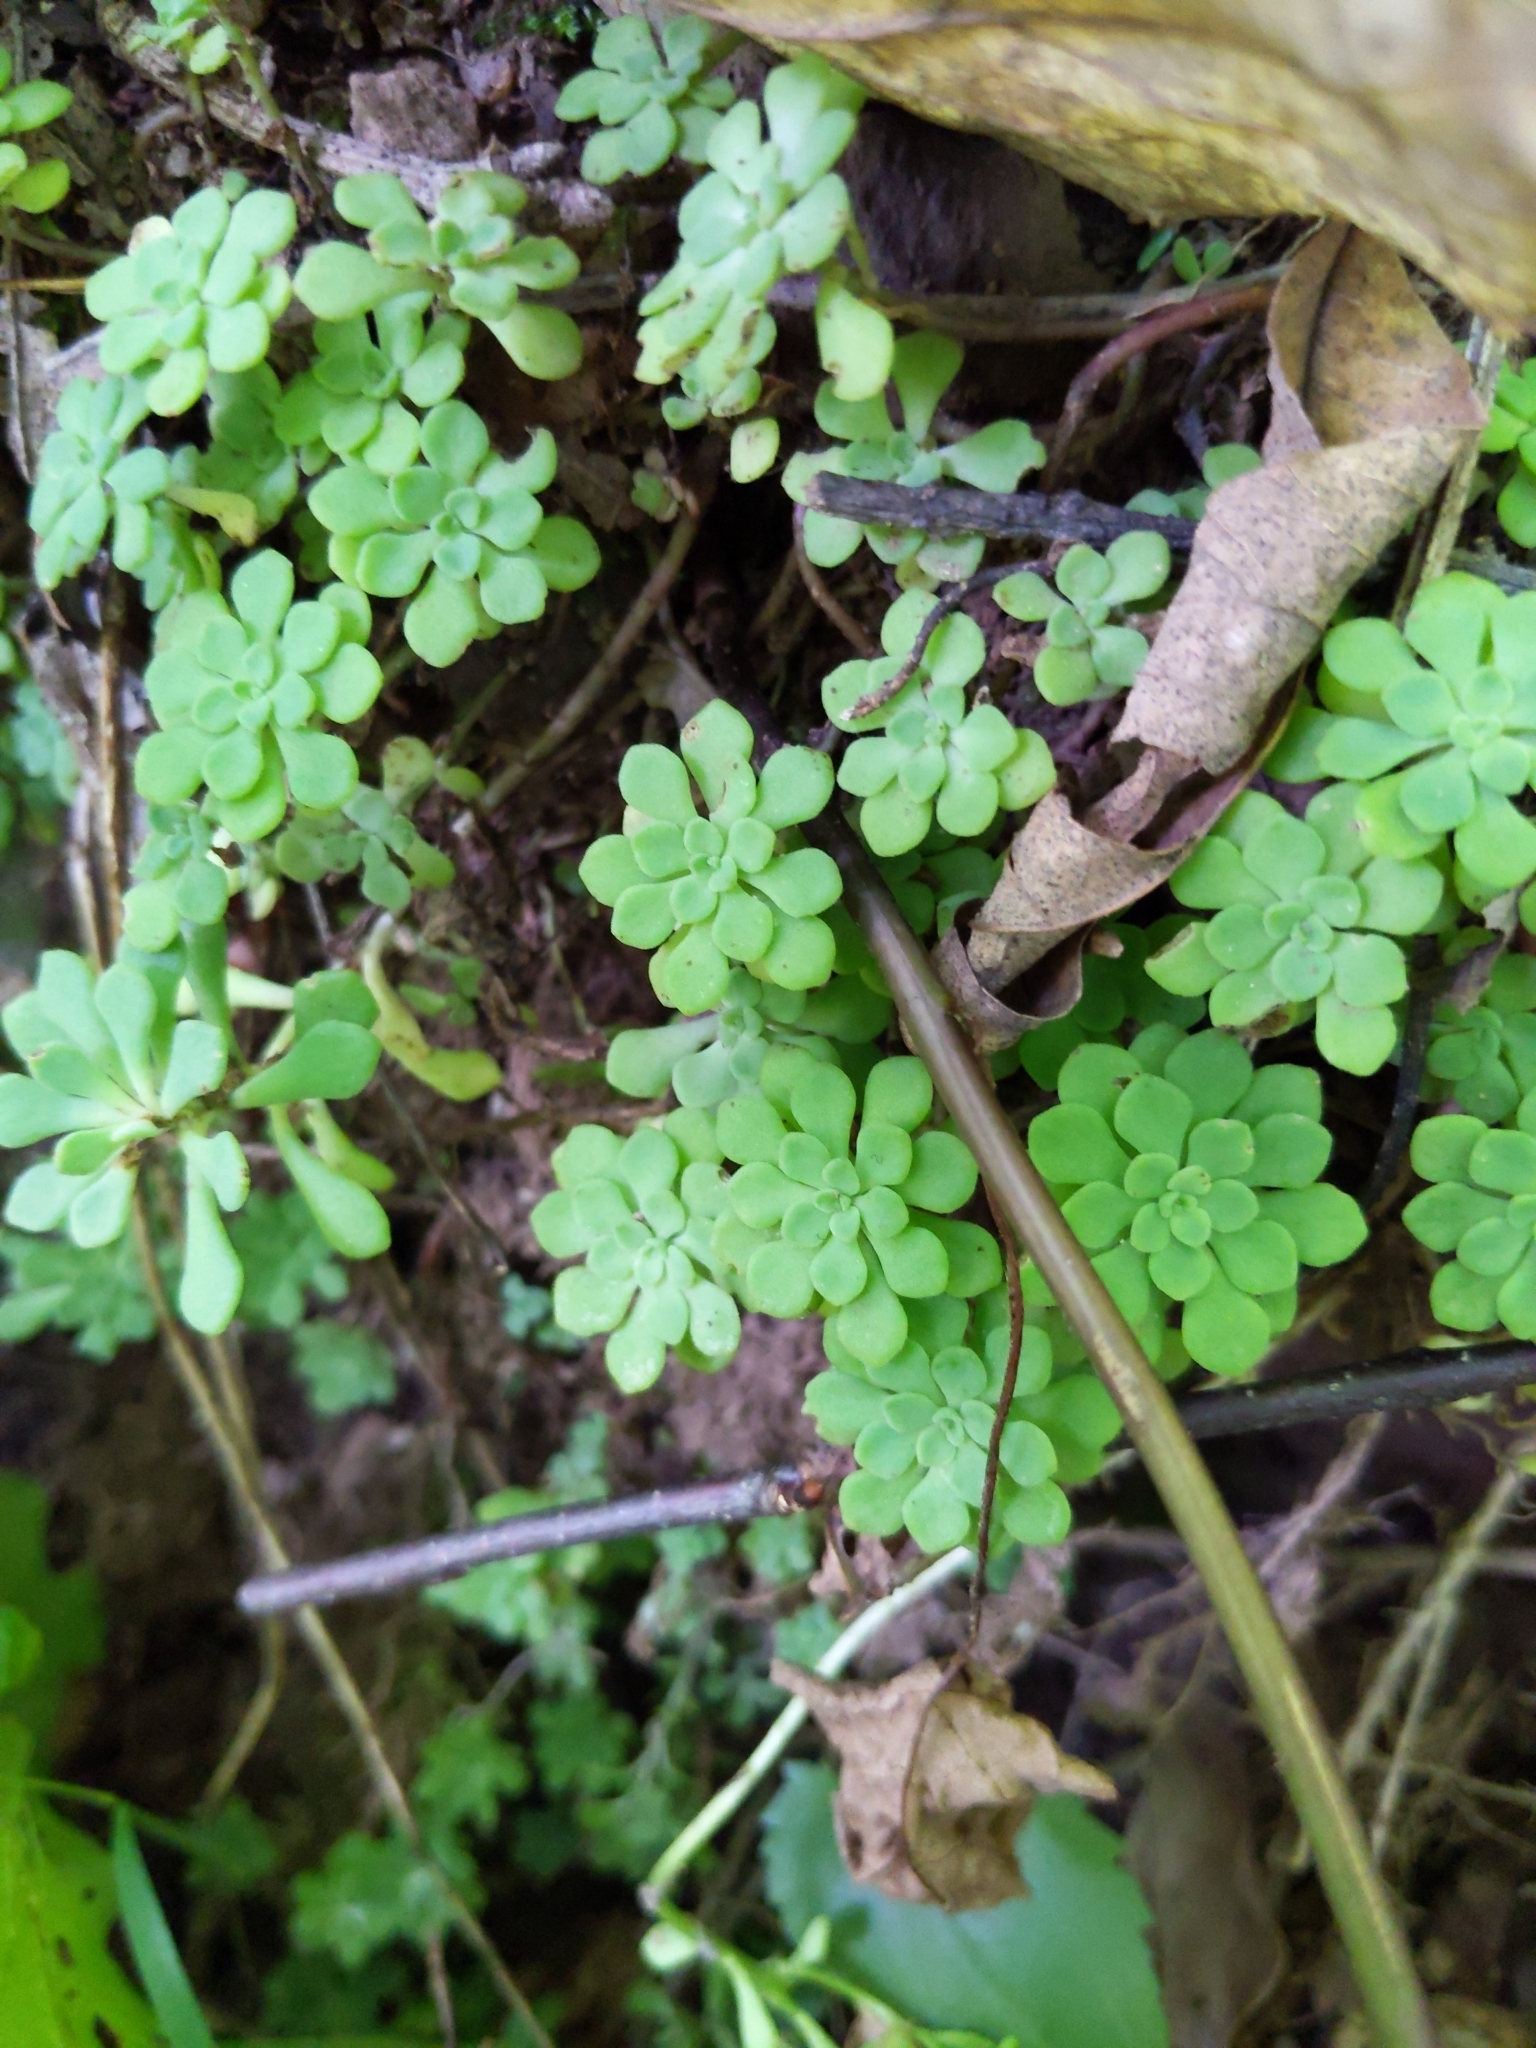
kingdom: Plantae
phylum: Tracheophyta
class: Magnoliopsida
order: Saxifragales
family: Crassulaceae
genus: Sedum
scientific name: Sedum glaucophyllum
